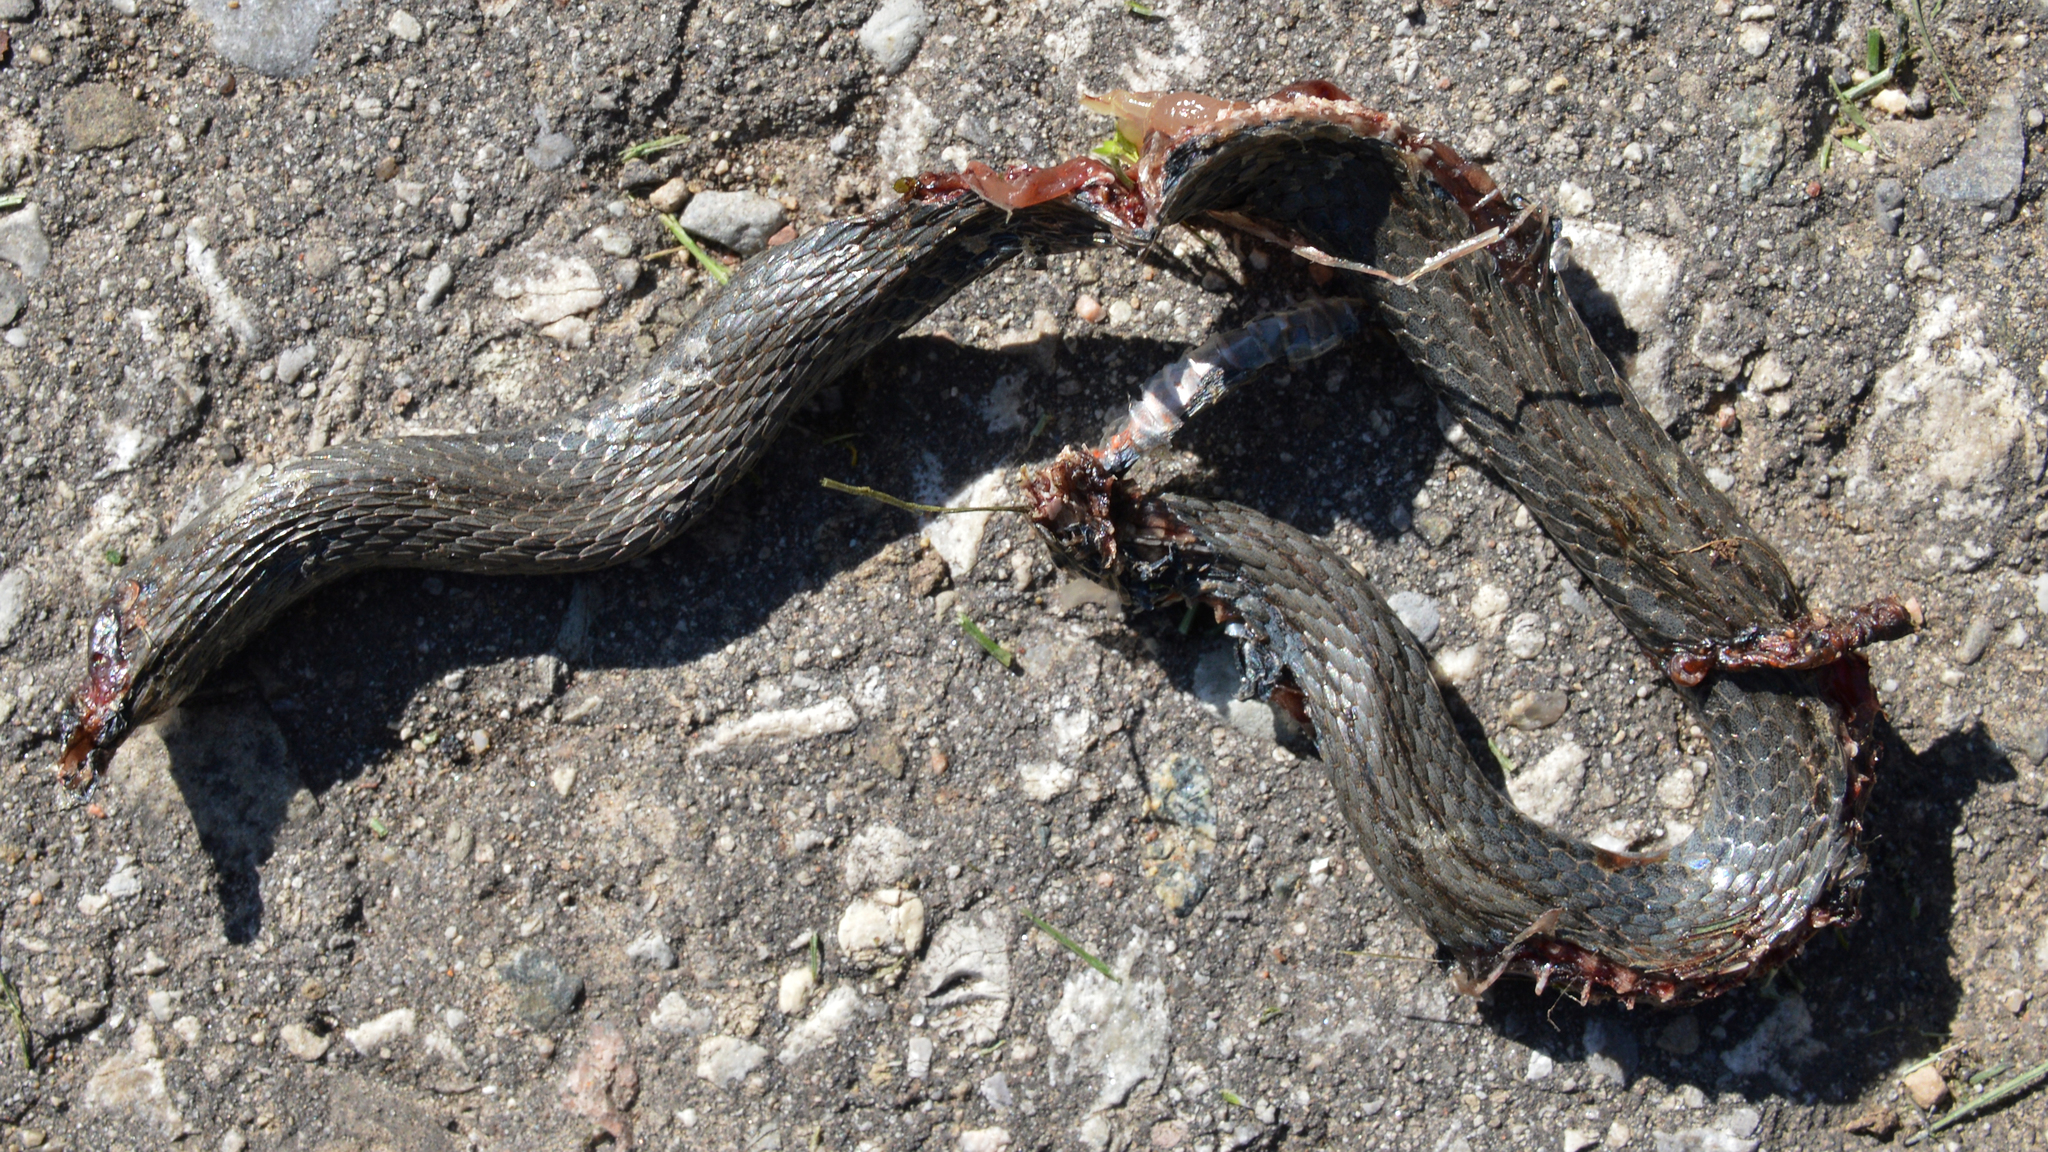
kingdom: Animalia
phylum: Chordata
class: Squamata
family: Colubridae
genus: Storeria
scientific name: Storeria occipitomaculata
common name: Redbelly snake
